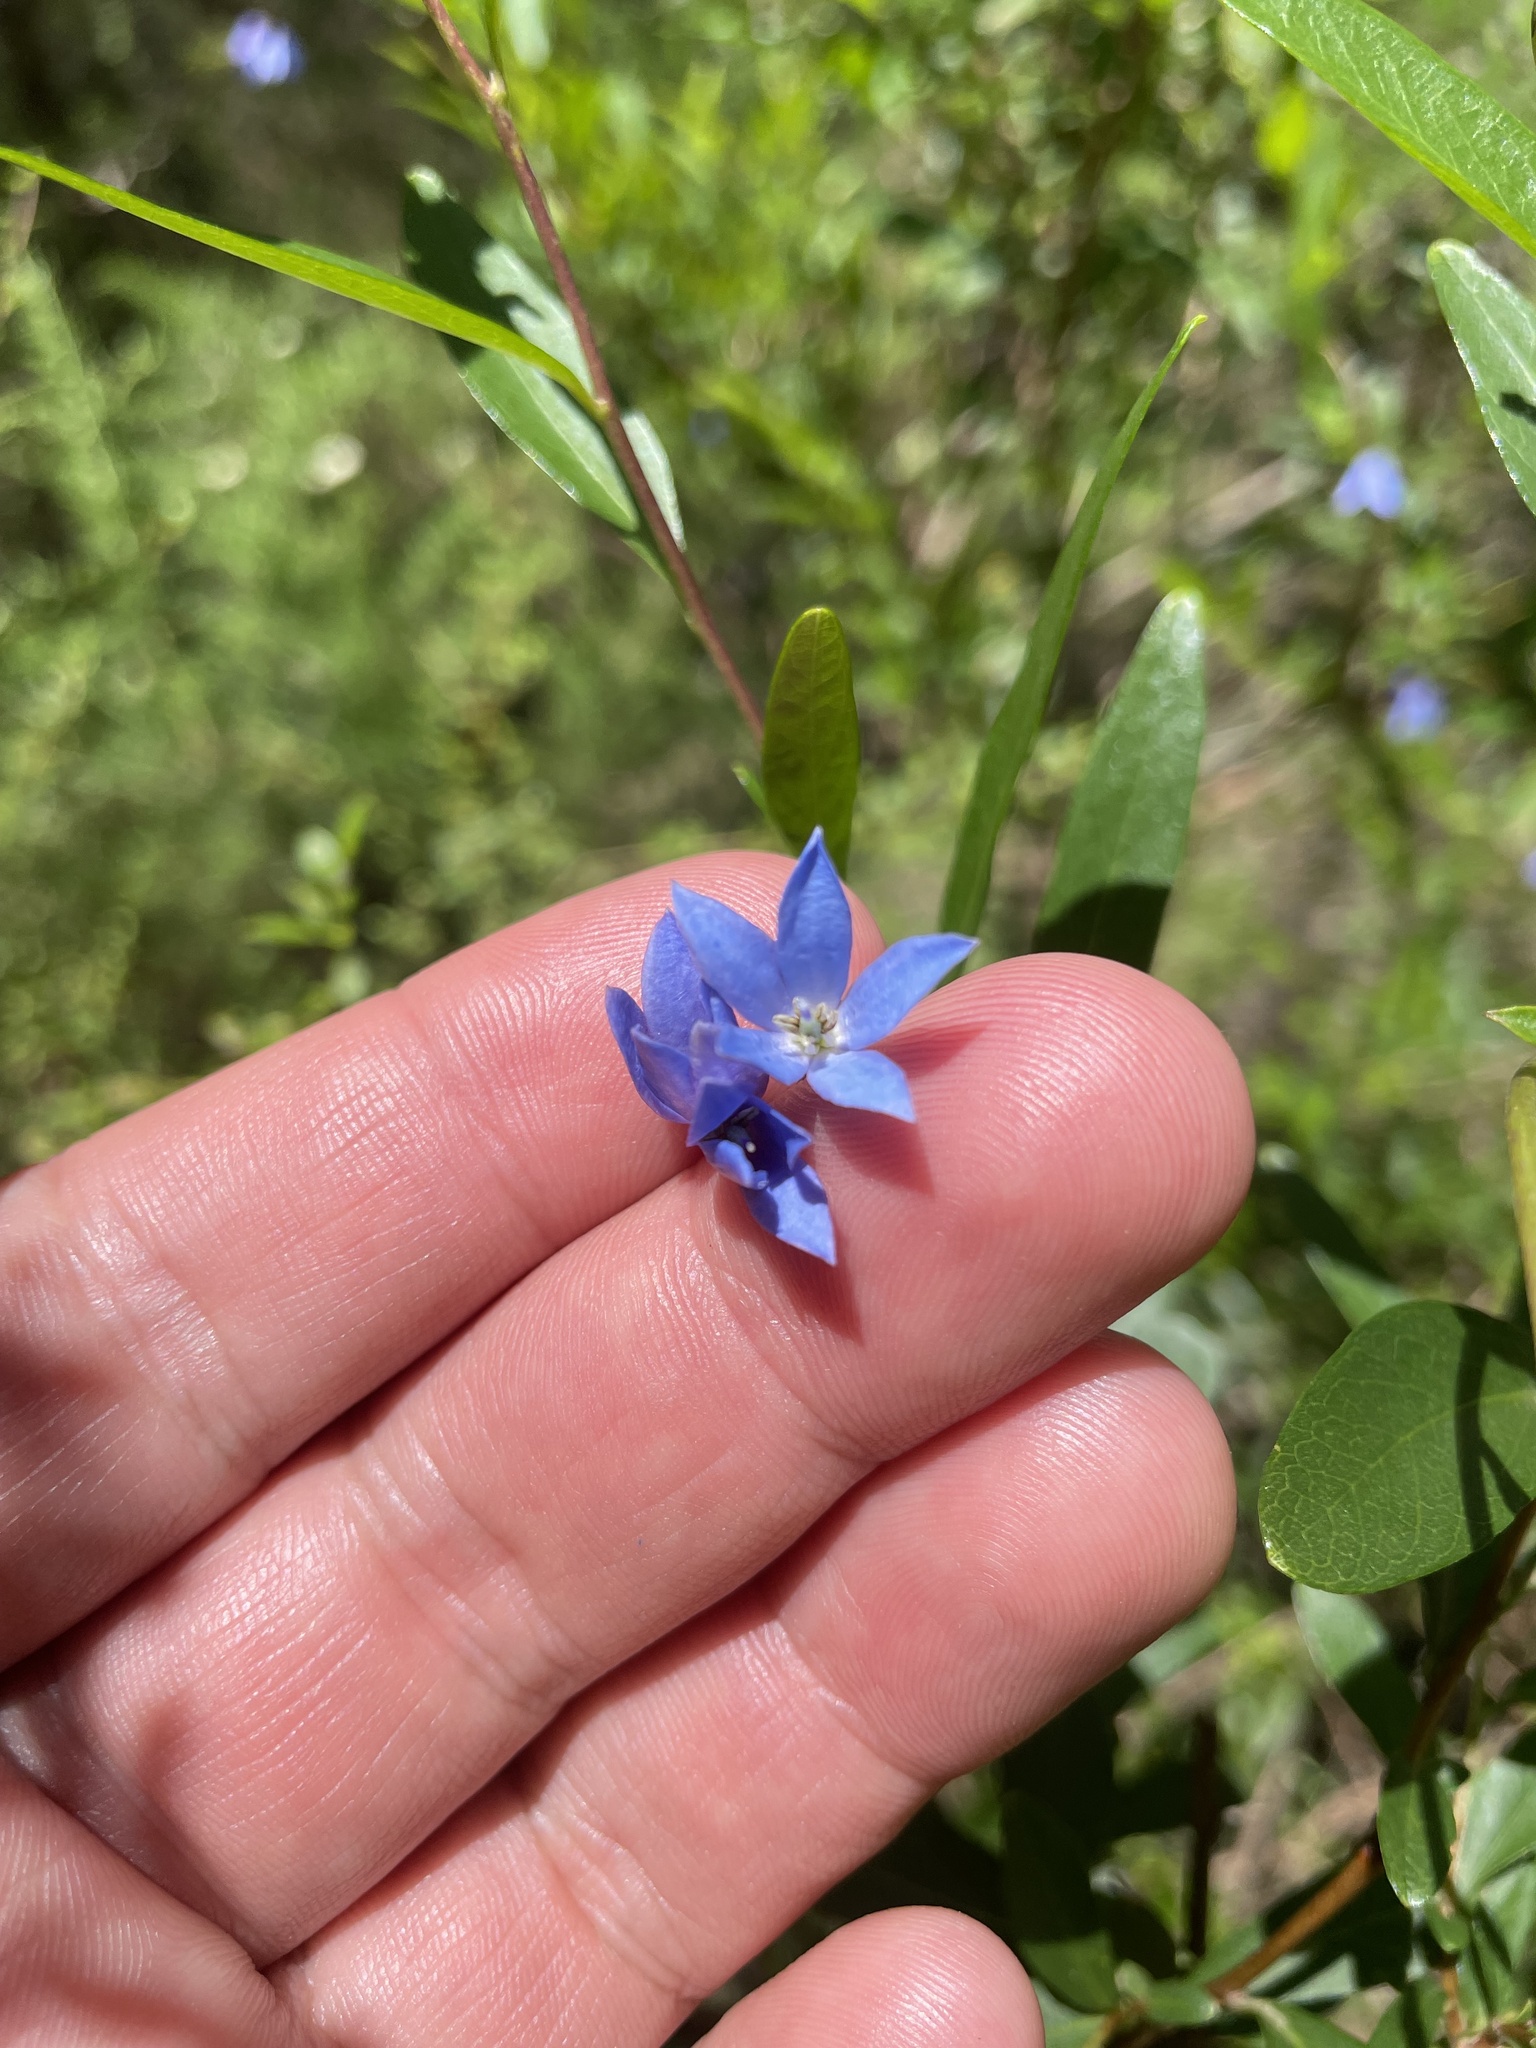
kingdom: Plantae
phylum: Tracheophyta
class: Magnoliopsida
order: Apiales
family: Pittosporaceae
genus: Billardiera
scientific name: Billardiera fusiformis
